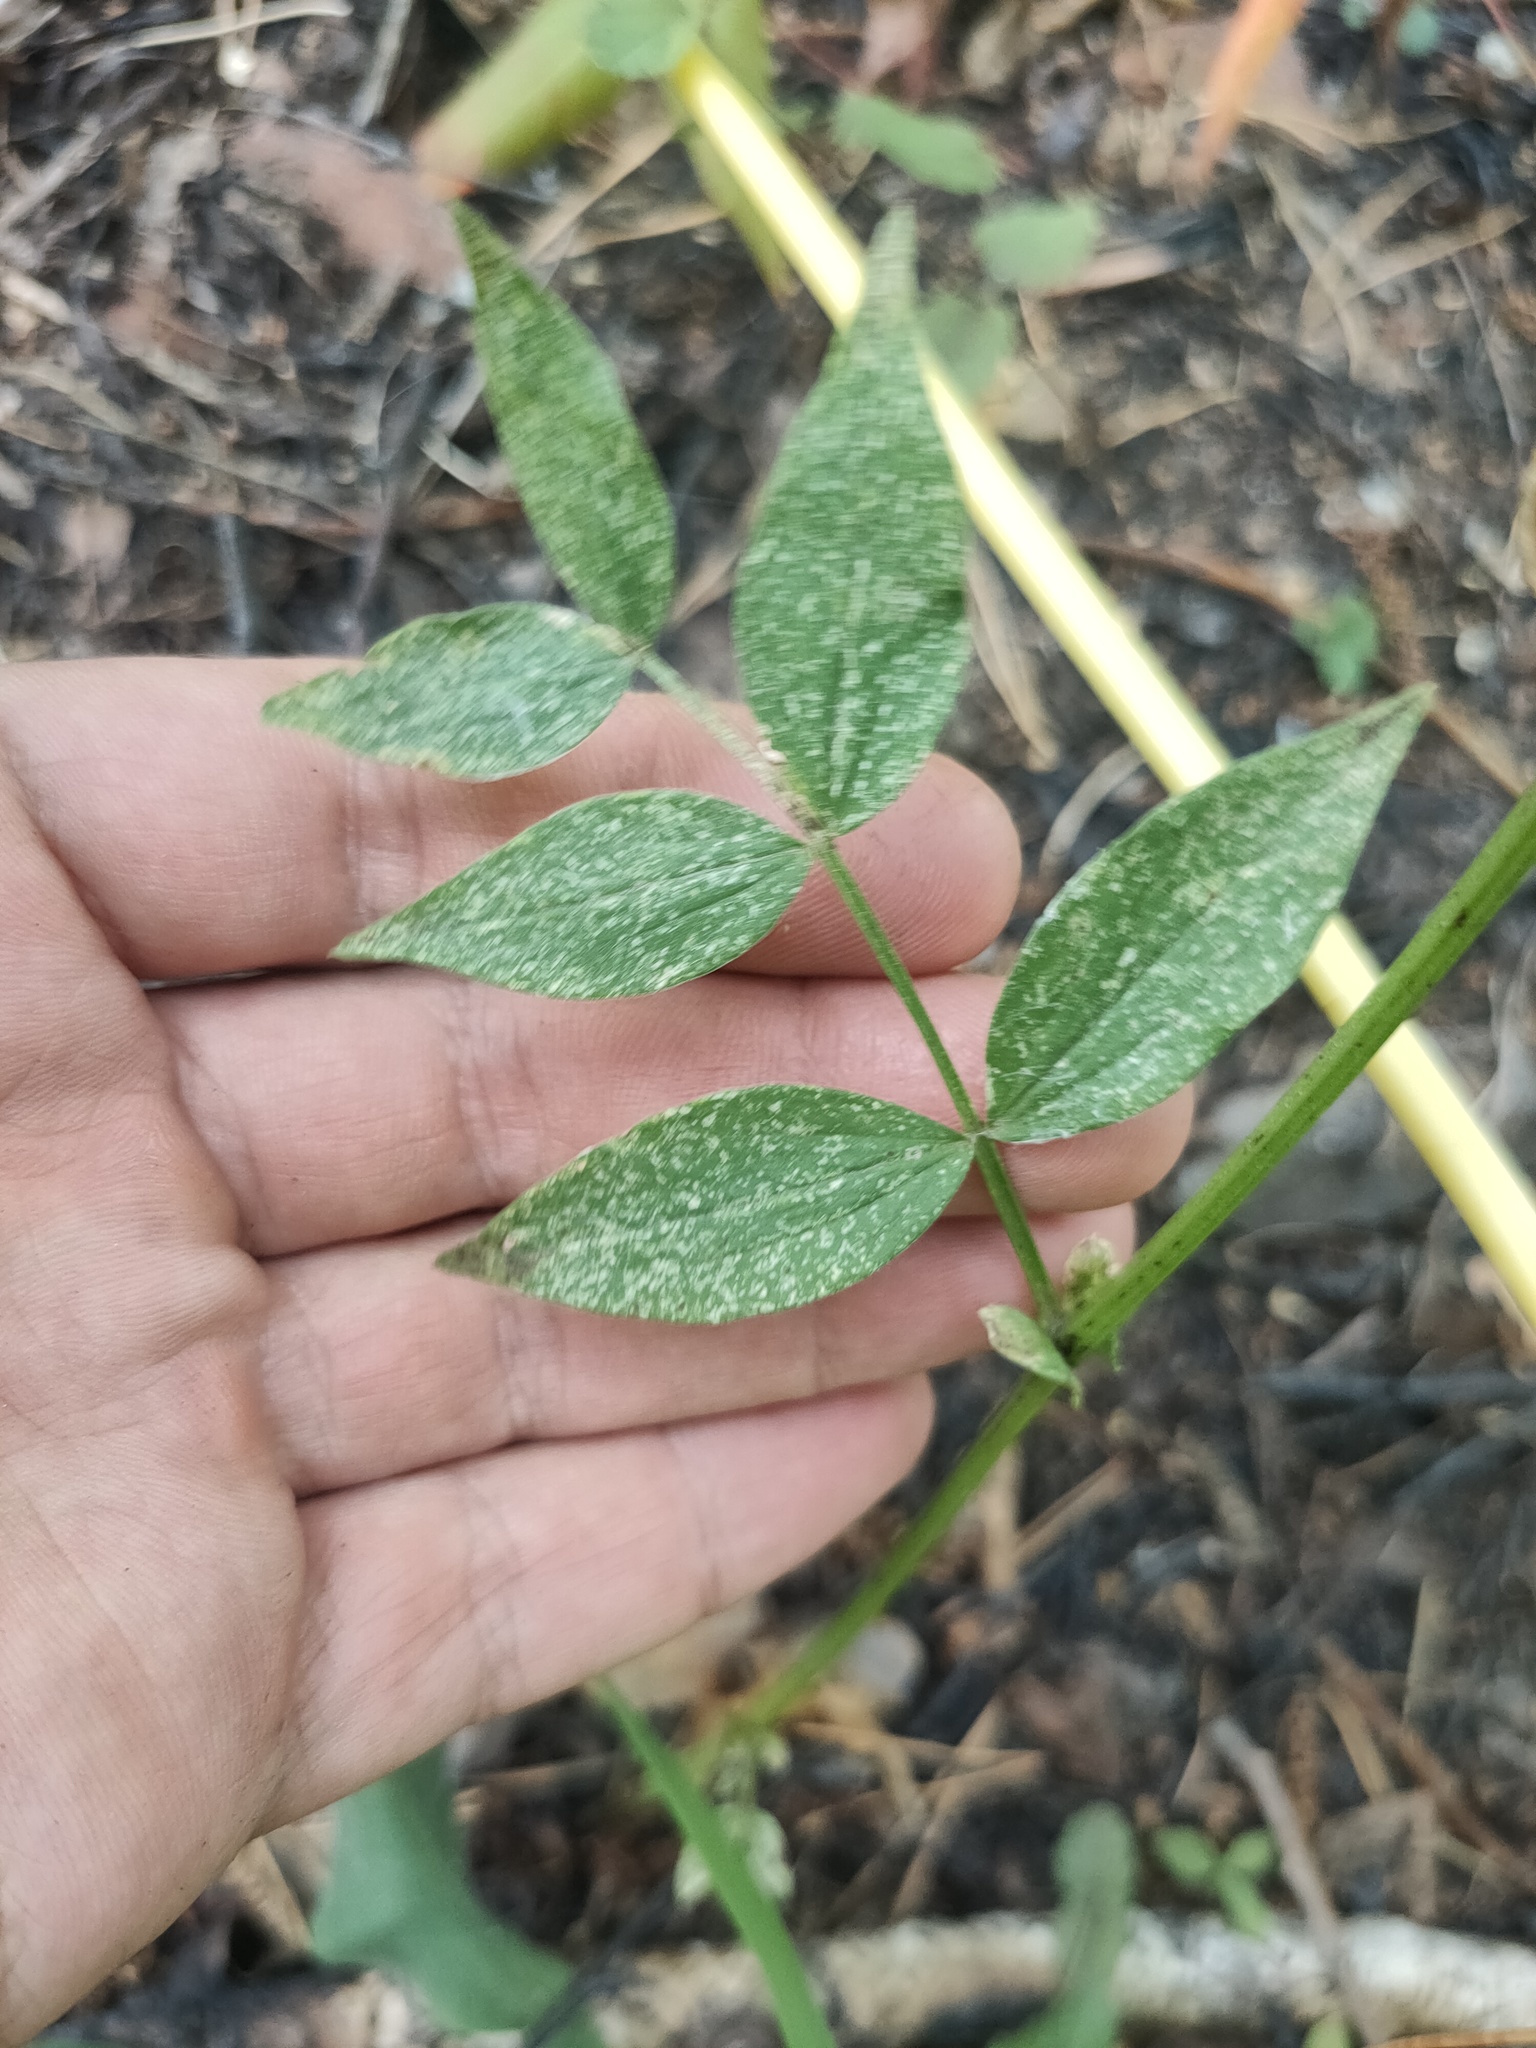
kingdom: Plantae
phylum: Tracheophyta
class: Magnoliopsida
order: Fabales
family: Fabaceae
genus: Lathyrus
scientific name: Lathyrus vernus
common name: Spring pea
